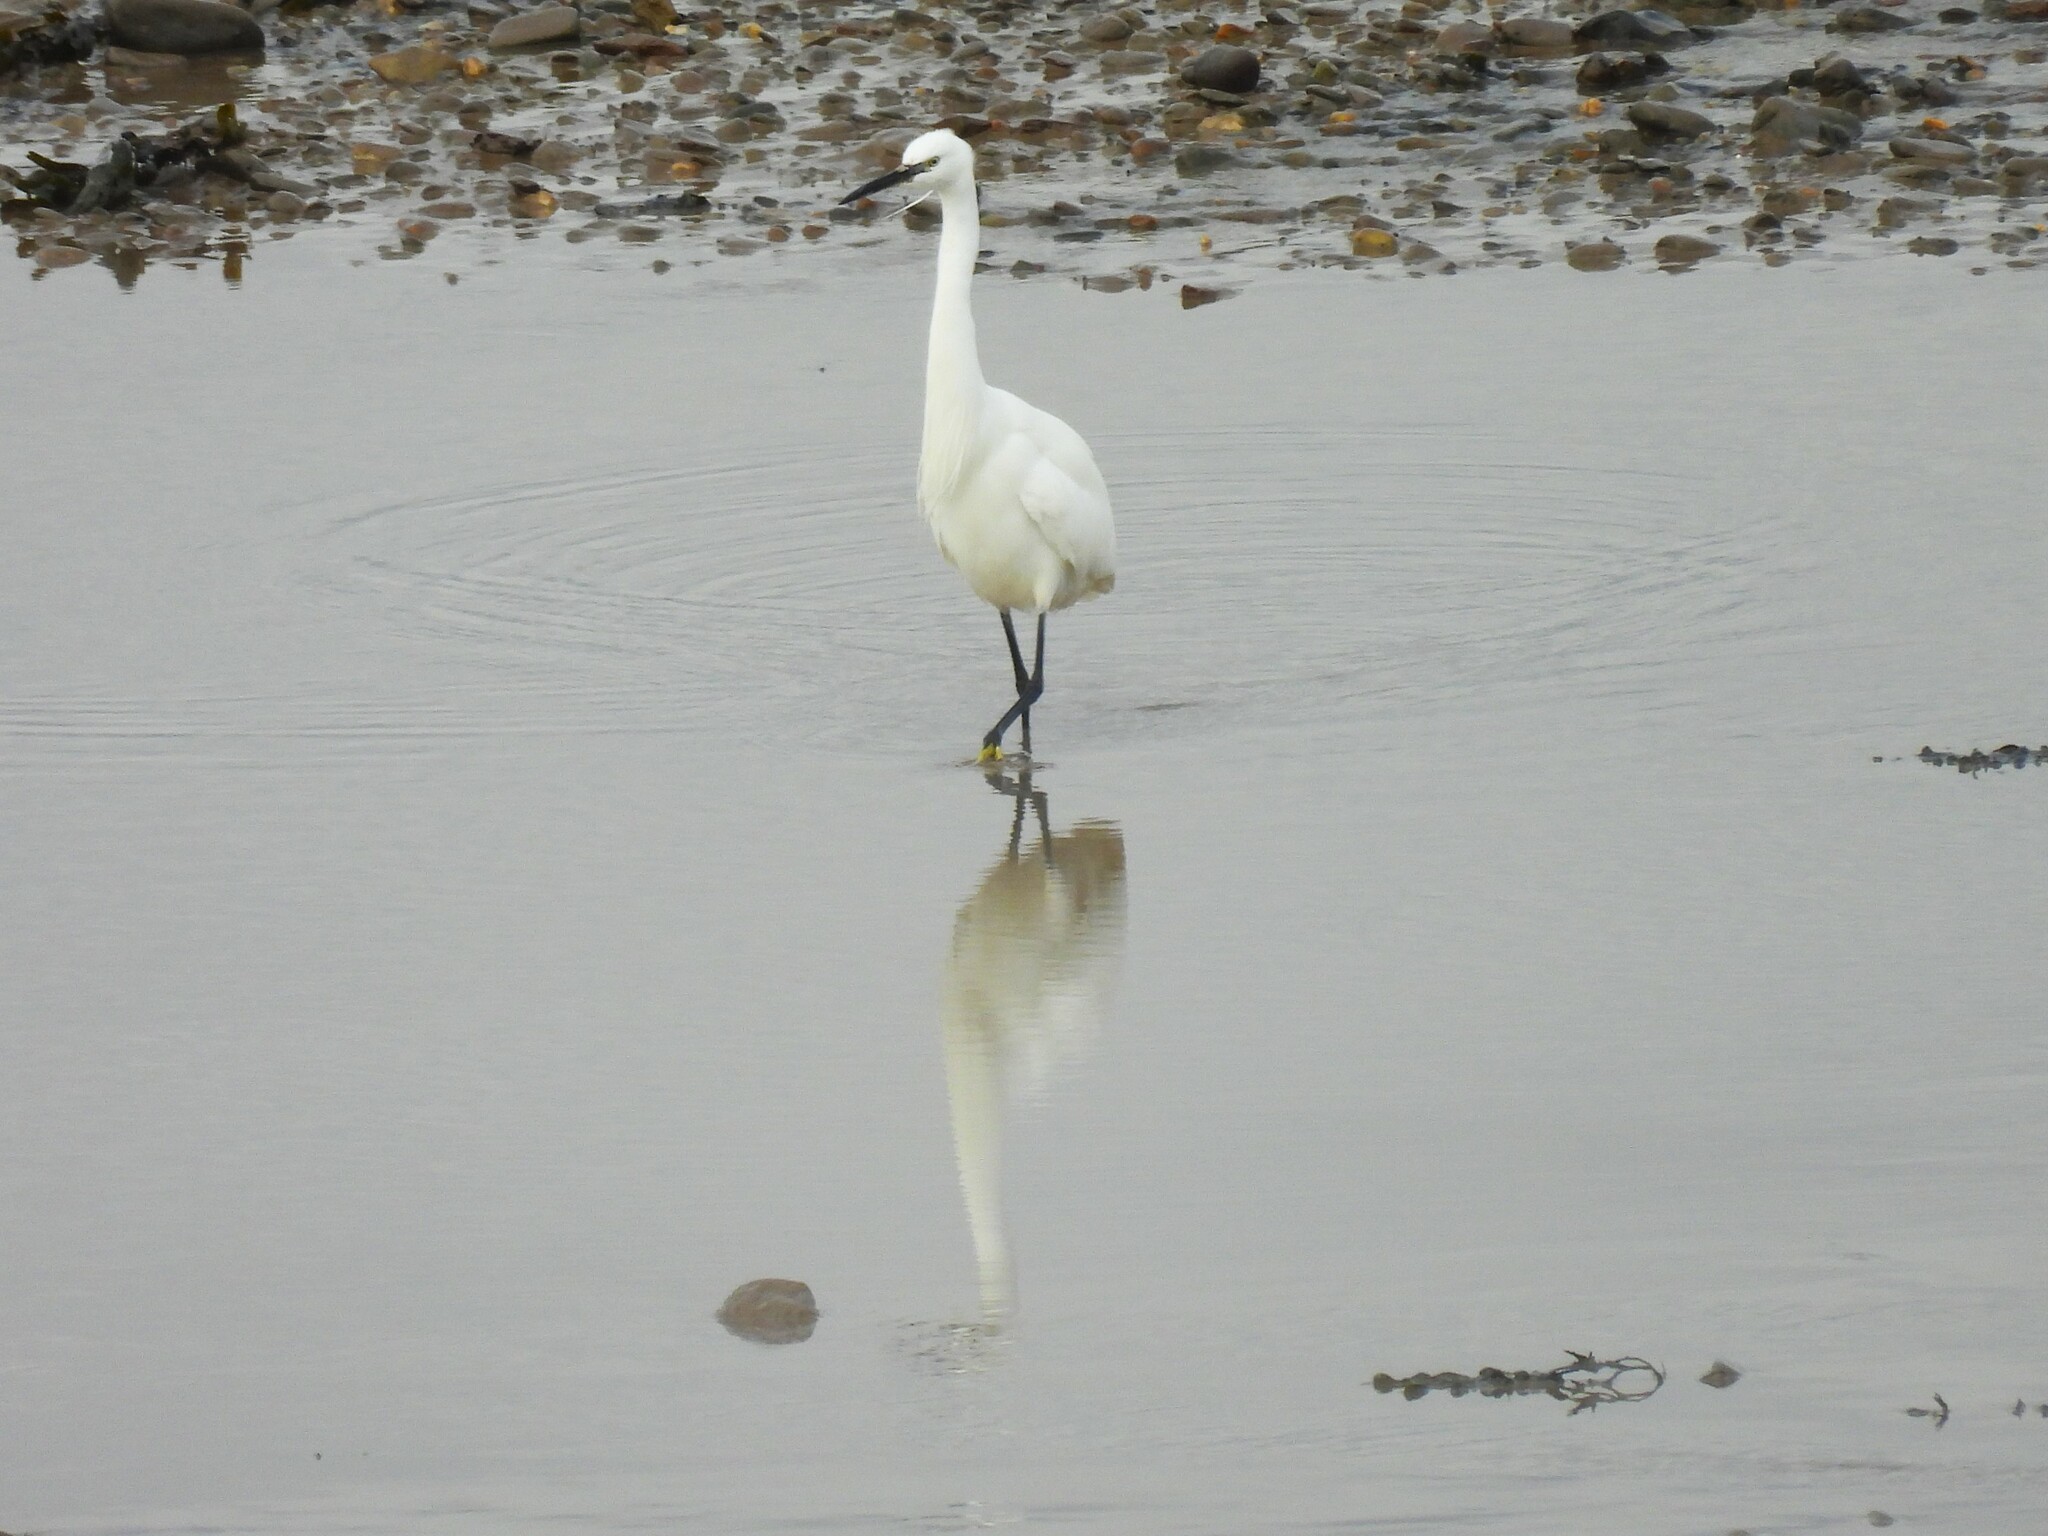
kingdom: Animalia
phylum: Chordata
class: Aves
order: Pelecaniformes
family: Ardeidae
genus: Egretta
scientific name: Egretta garzetta
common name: Little egret
